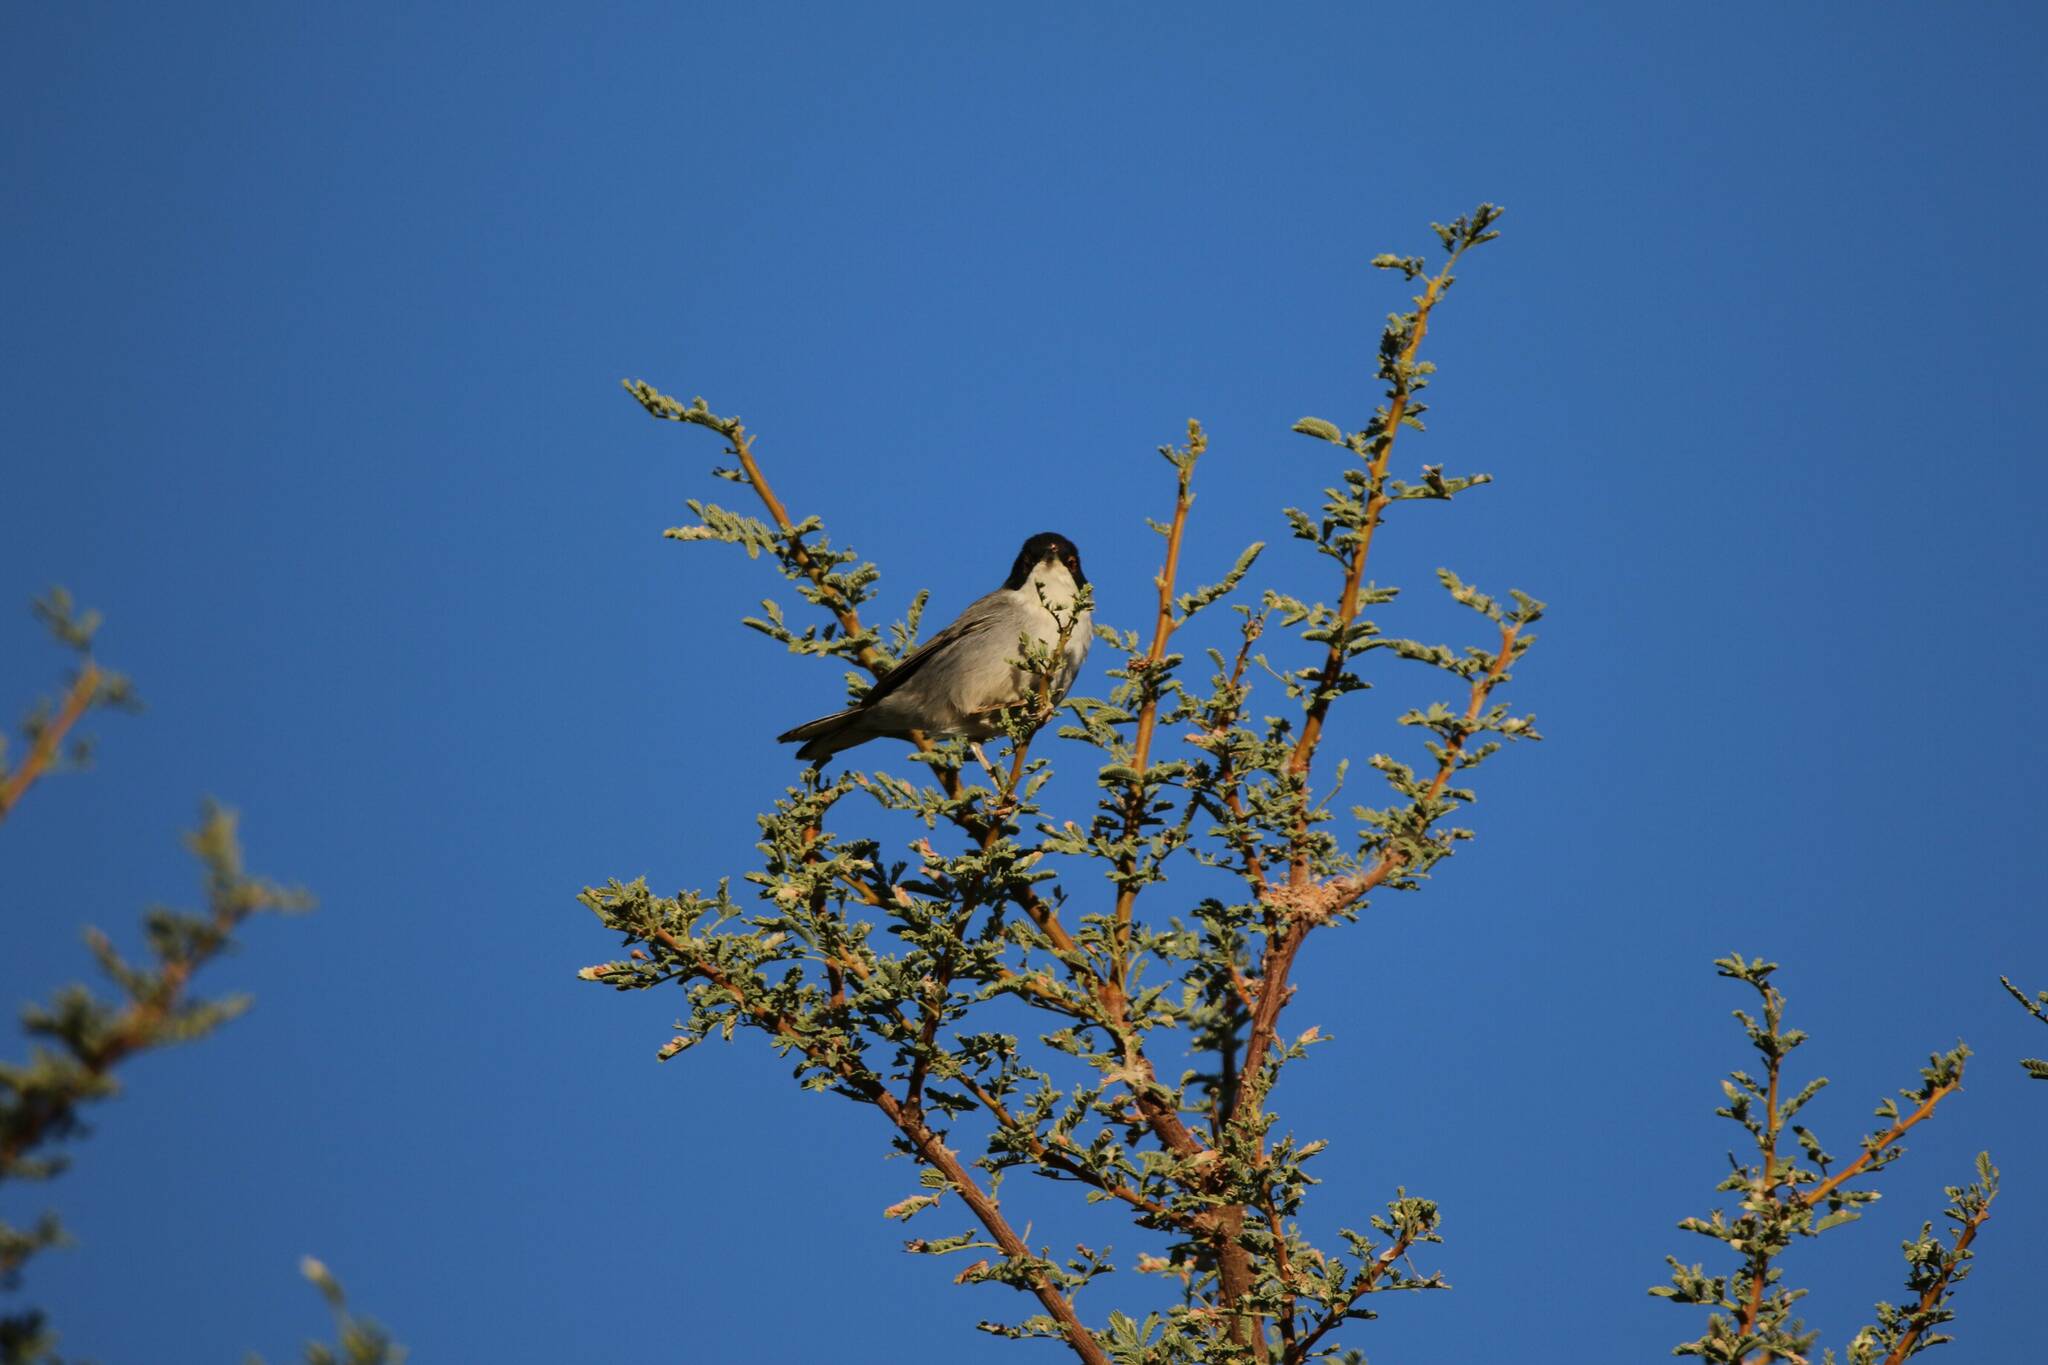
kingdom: Animalia
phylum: Chordata
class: Aves
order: Passeriformes
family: Sylviidae
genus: Curruca
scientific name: Curruca melanocephala
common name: Sardinian warbler
